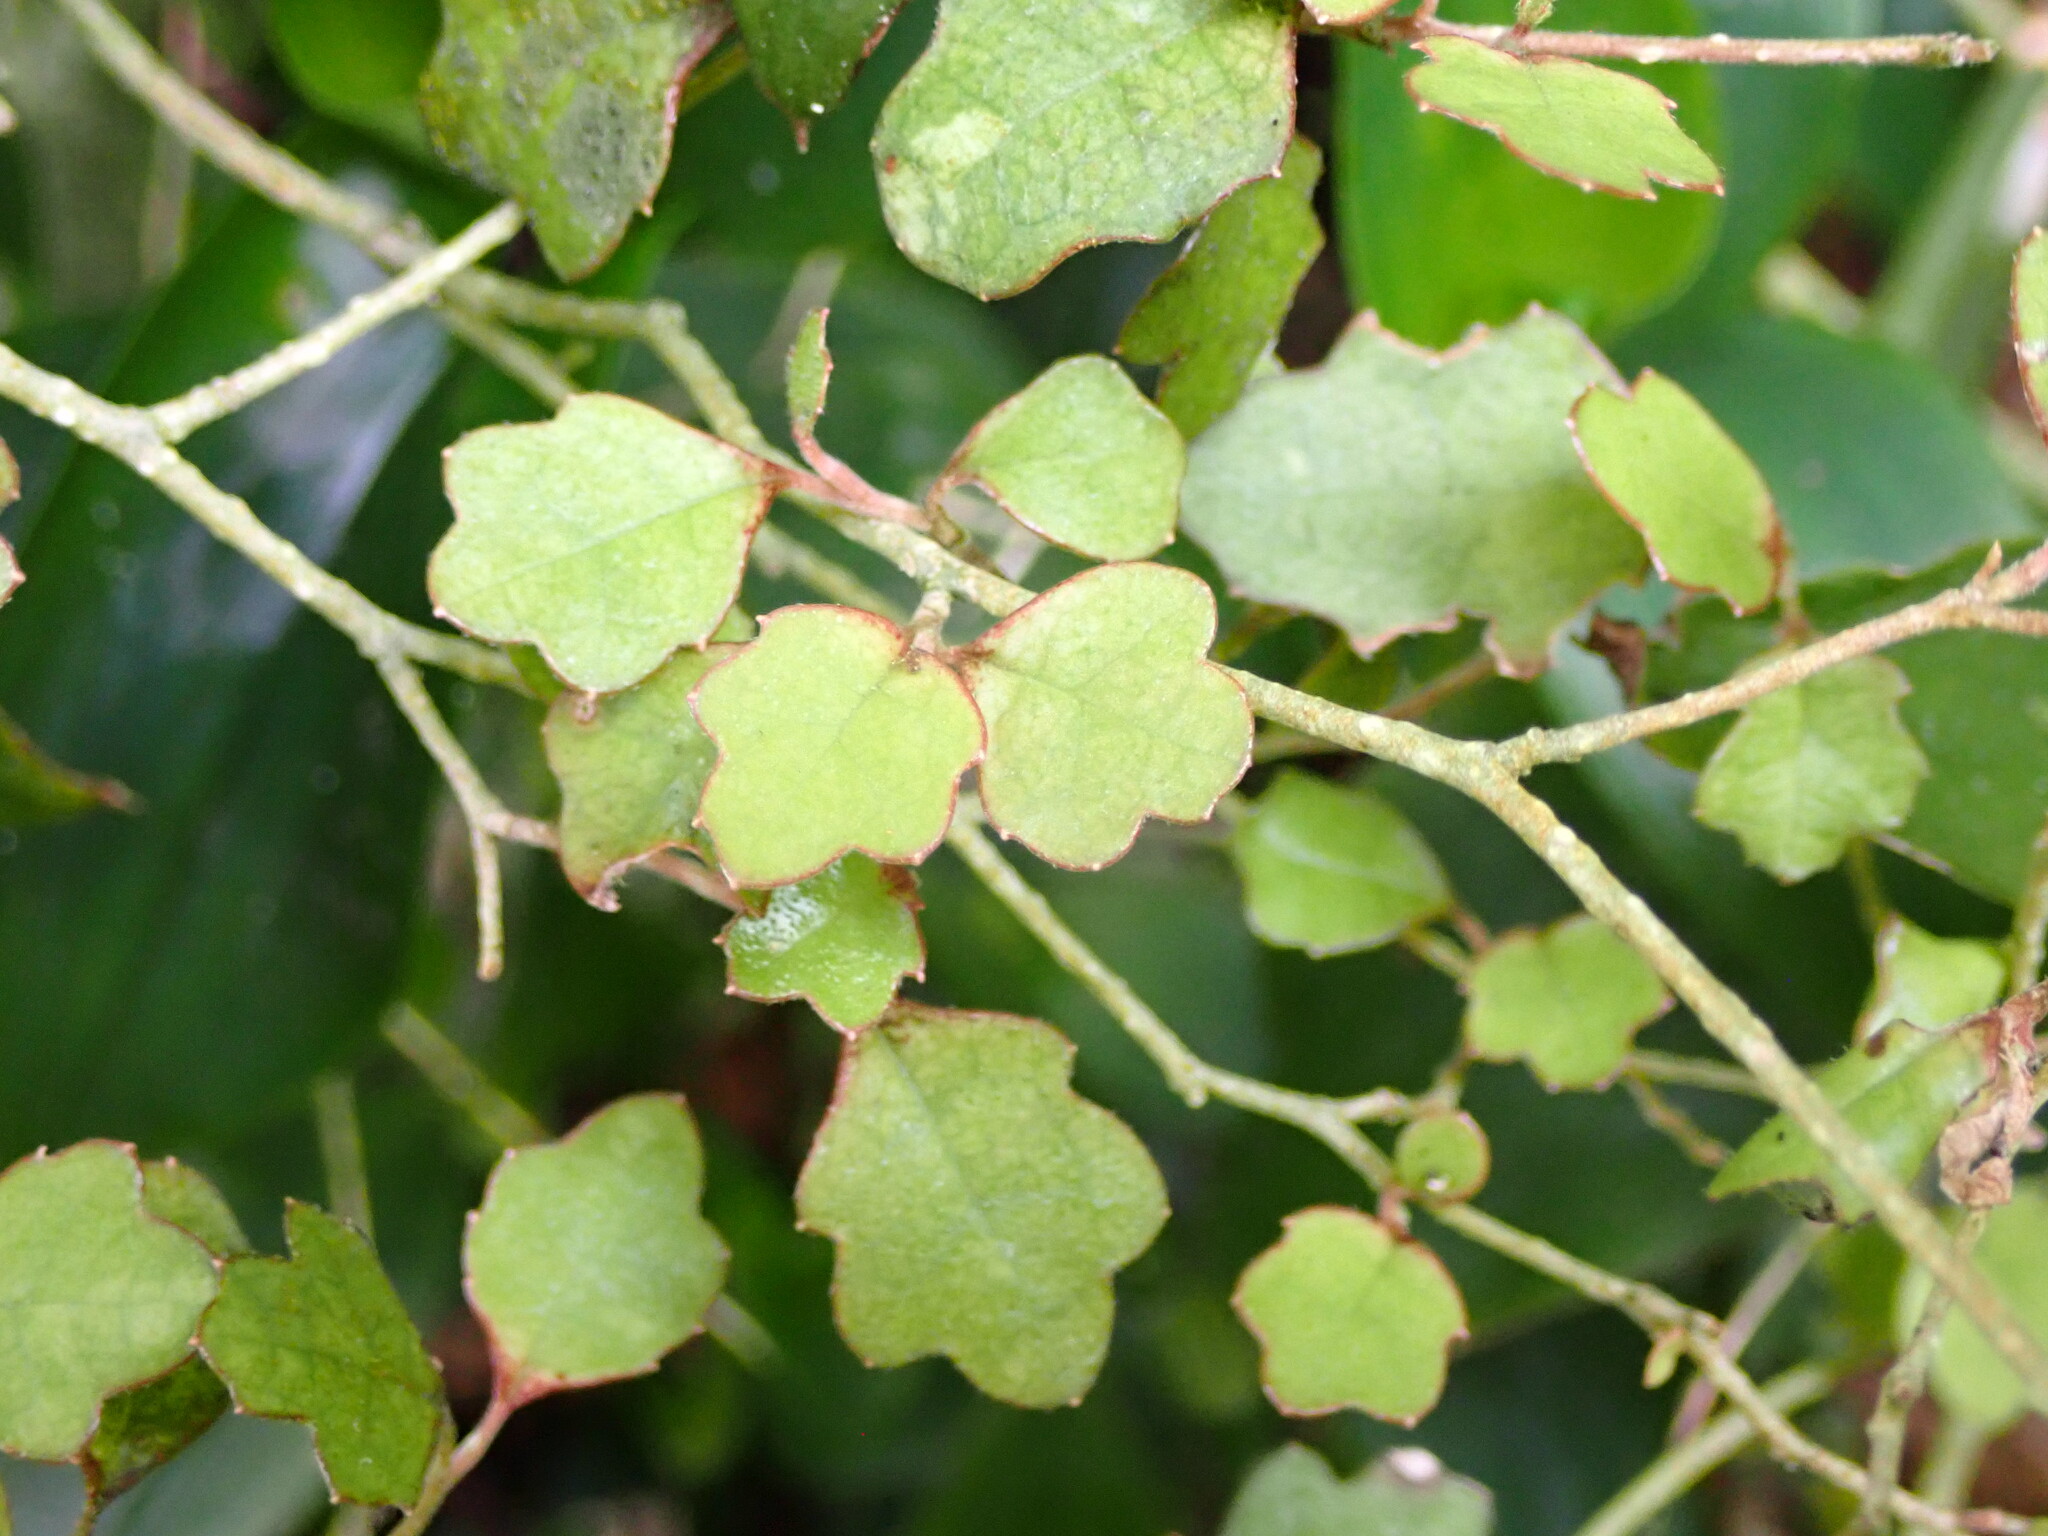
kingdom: Plantae
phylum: Tracheophyta
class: Magnoliopsida
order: Apiales
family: Pennantiaceae
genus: Pennantia
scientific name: Pennantia corymbosa
